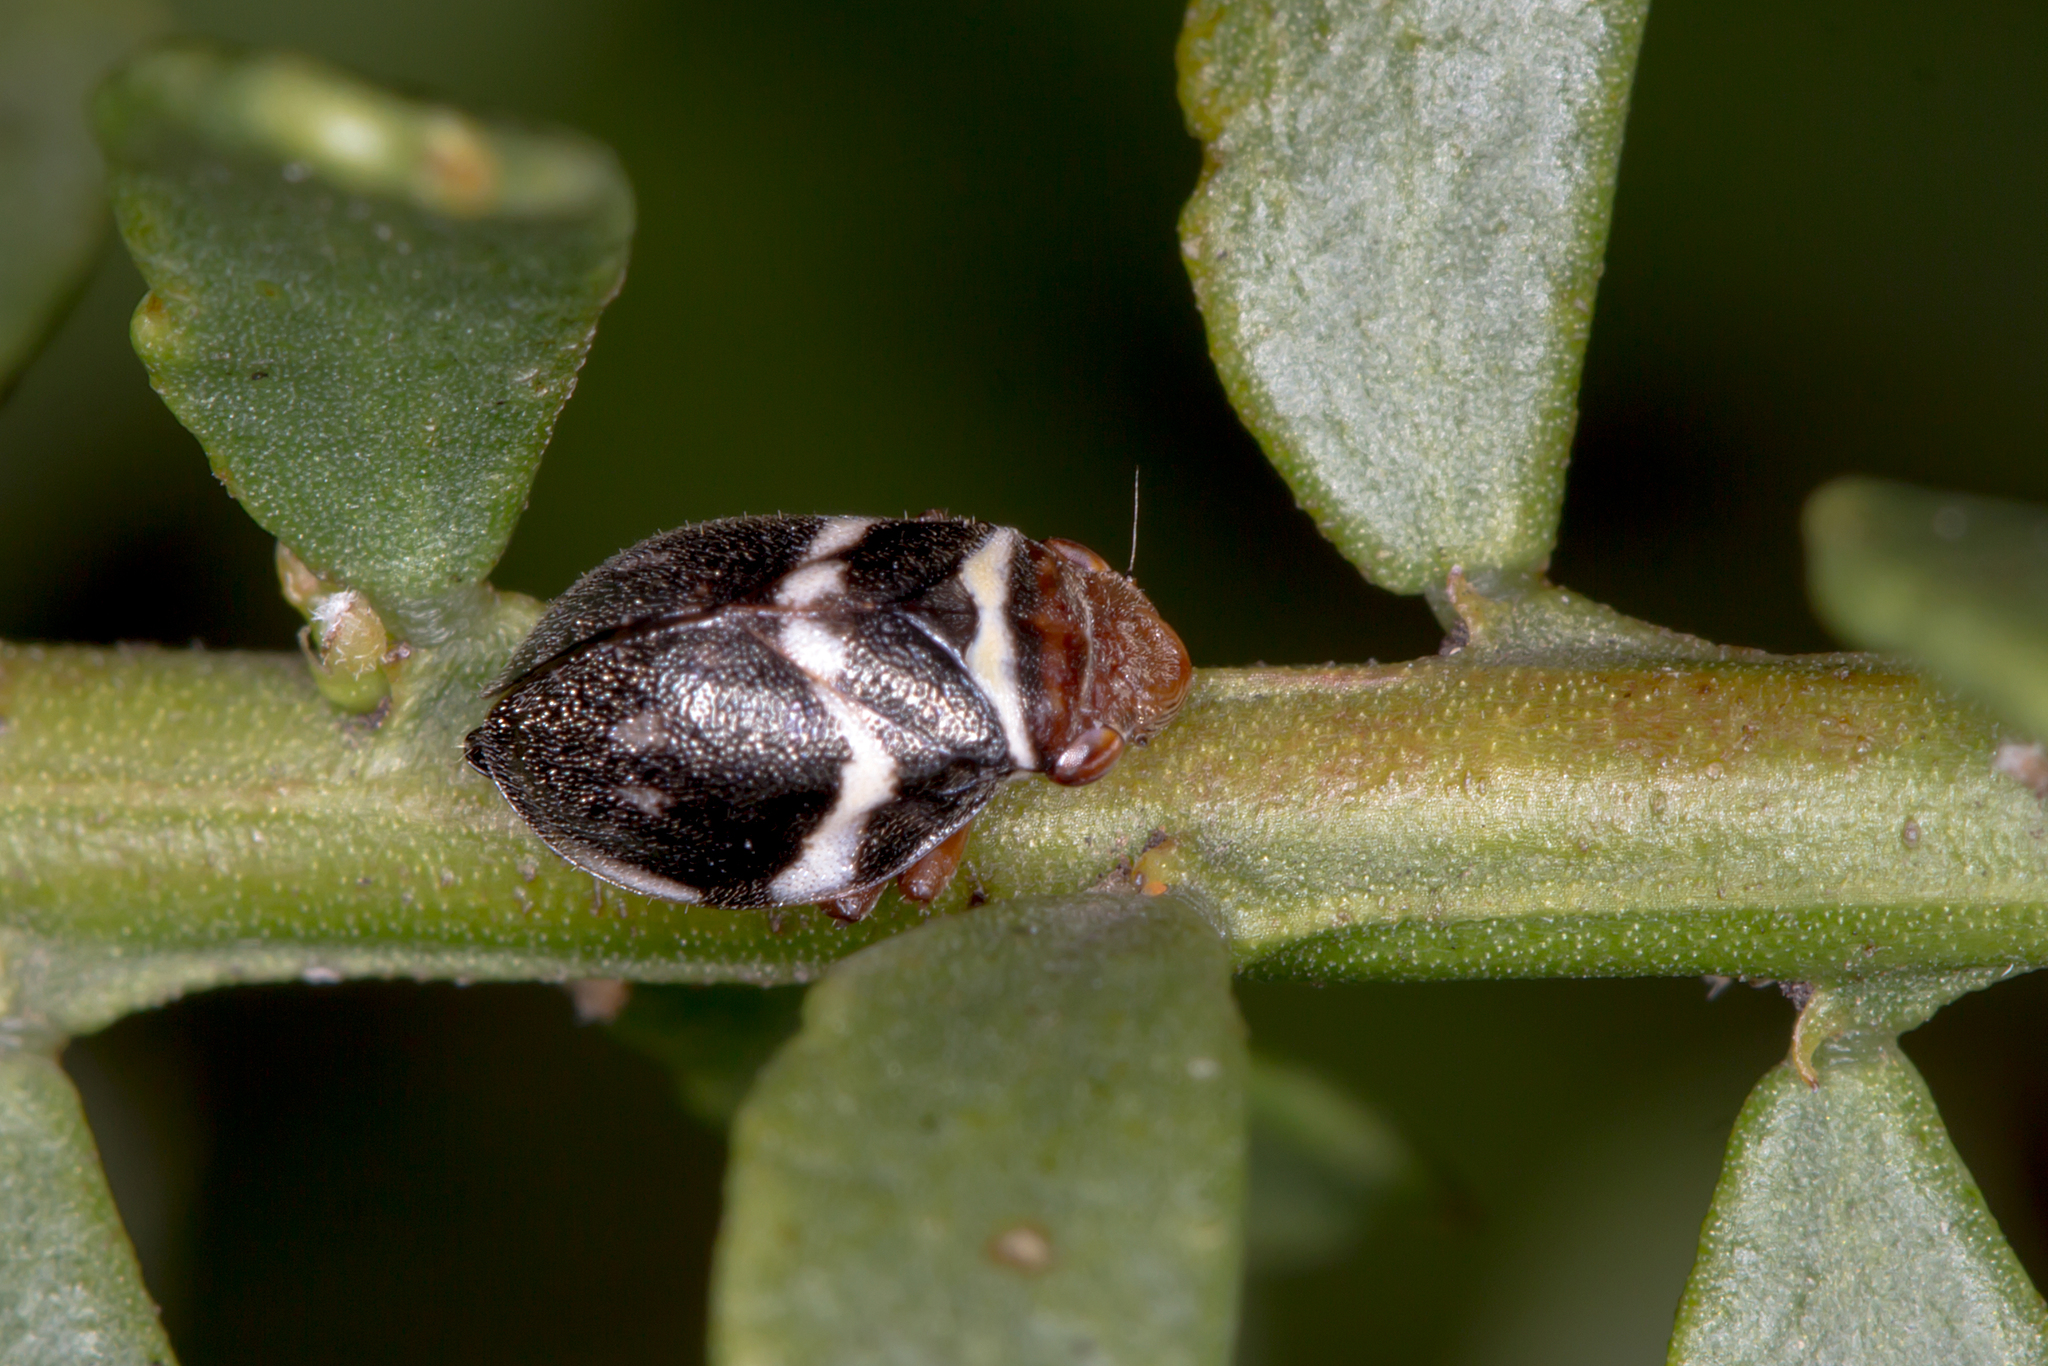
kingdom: Animalia
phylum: Arthropoda
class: Insecta
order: Hemiptera
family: Aphrophoridae
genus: Bathyllus
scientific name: Bathyllus albicinctus
